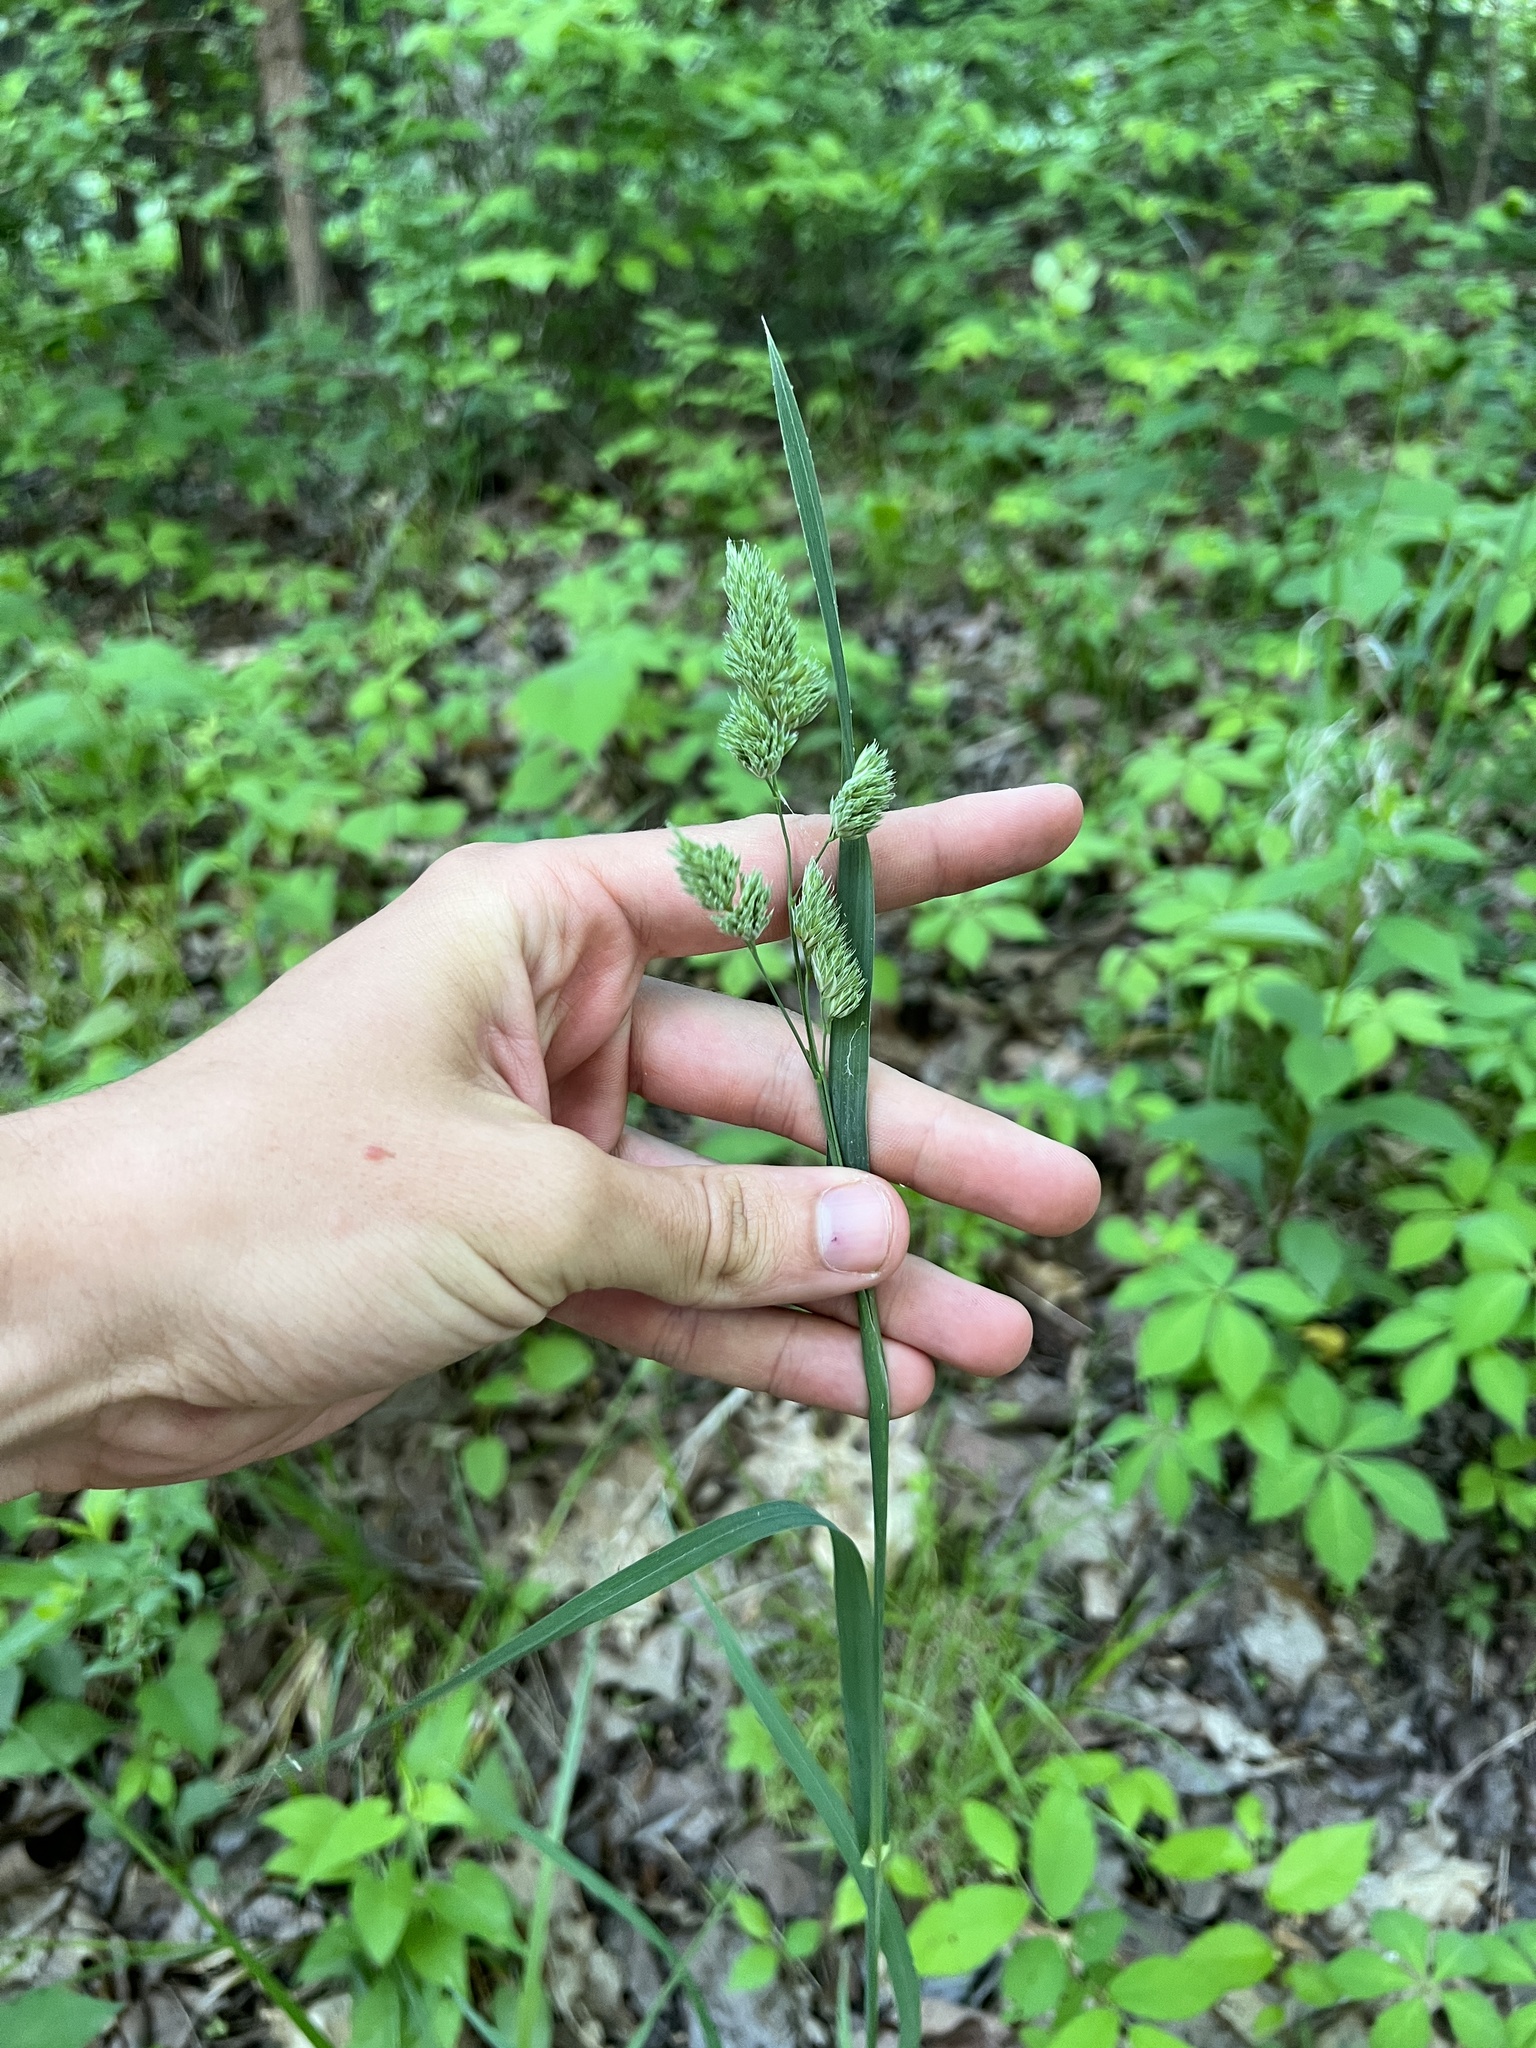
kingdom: Plantae
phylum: Tracheophyta
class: Liliopsida
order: Poales
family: Poaceae
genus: Dactylis
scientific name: Dactylis glomerata
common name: Orchardgrass
